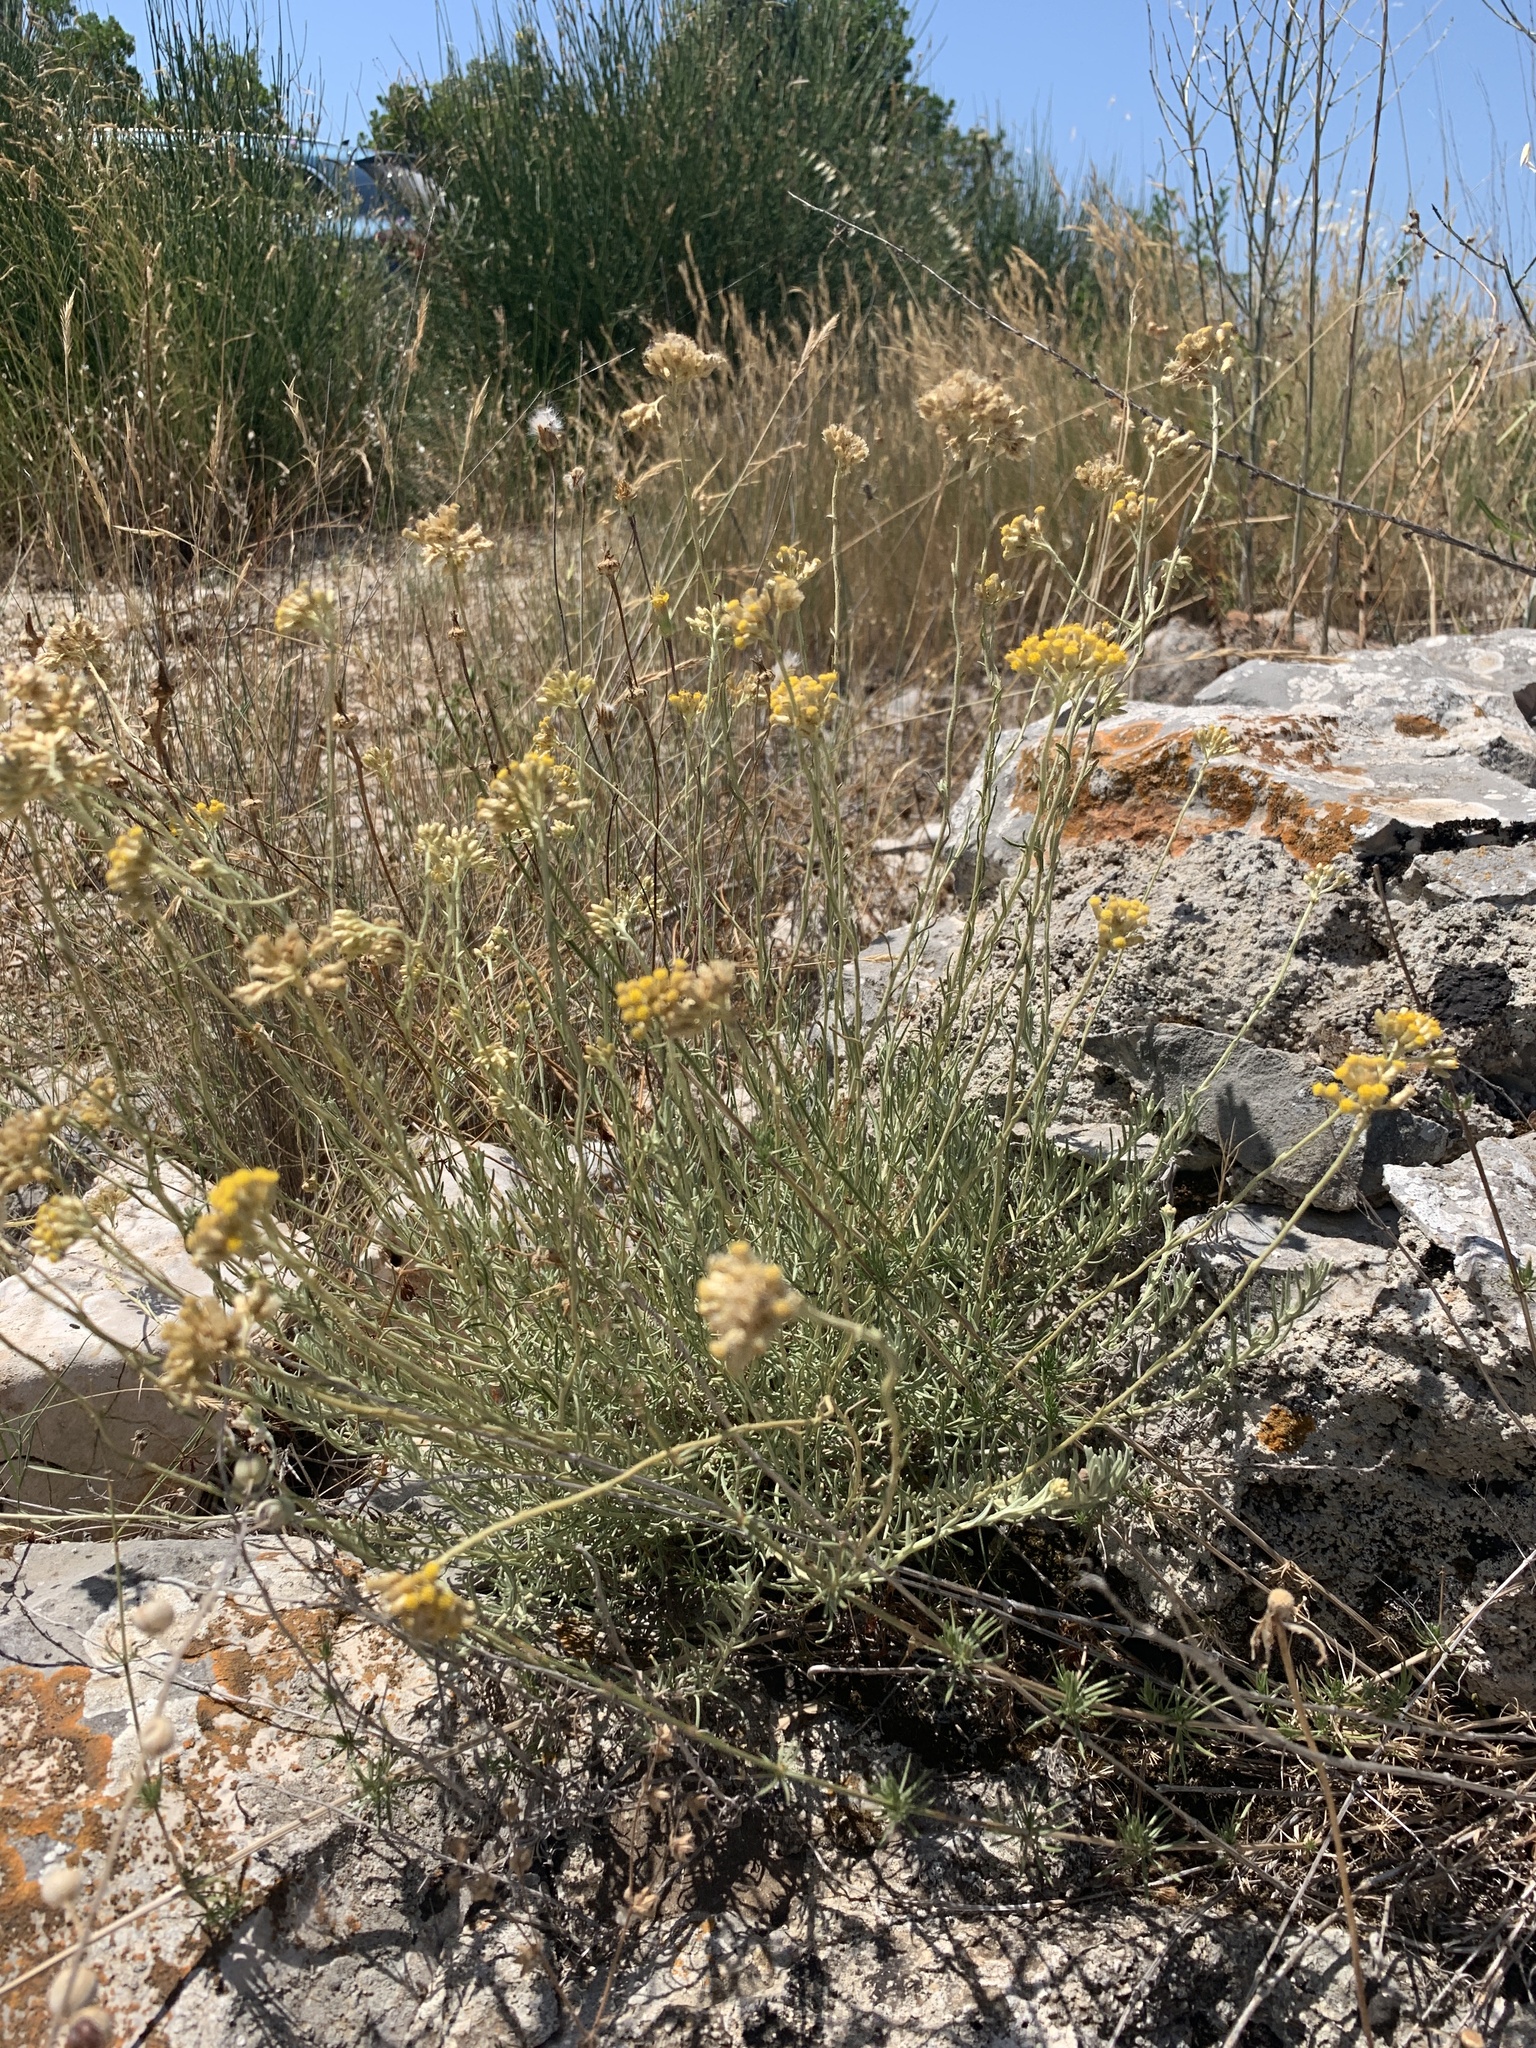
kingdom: Plantae
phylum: Tracheophyta
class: Magnoliopsida
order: Asterales
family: Asteraceae
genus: Helichrysum
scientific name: Helichrysum italicum
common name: Curryplant
